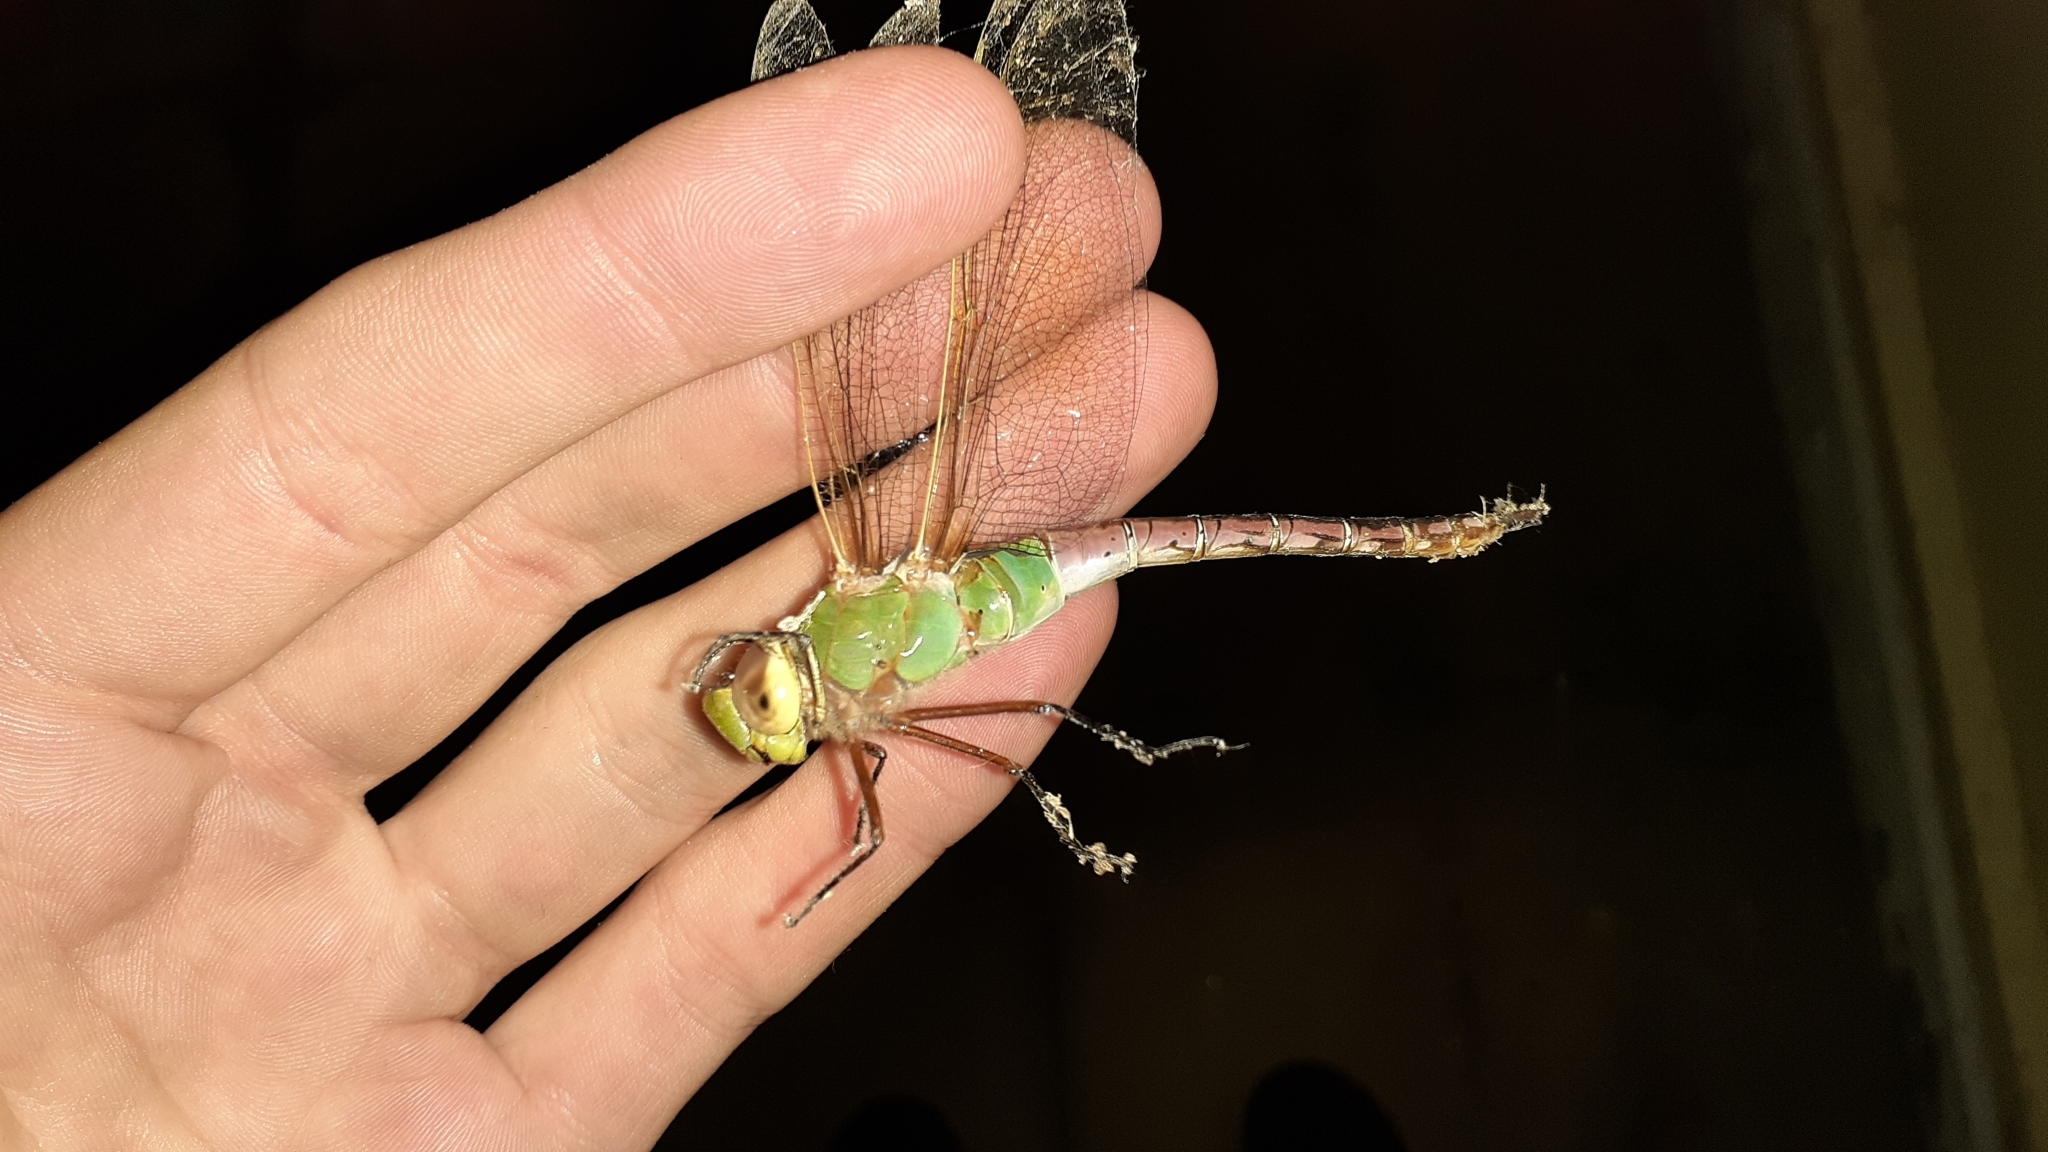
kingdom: Animalia
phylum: Arthropoda
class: Insecta
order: Odonata
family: Aeshnidae
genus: Anax
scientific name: Anax junius
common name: Common green darner
